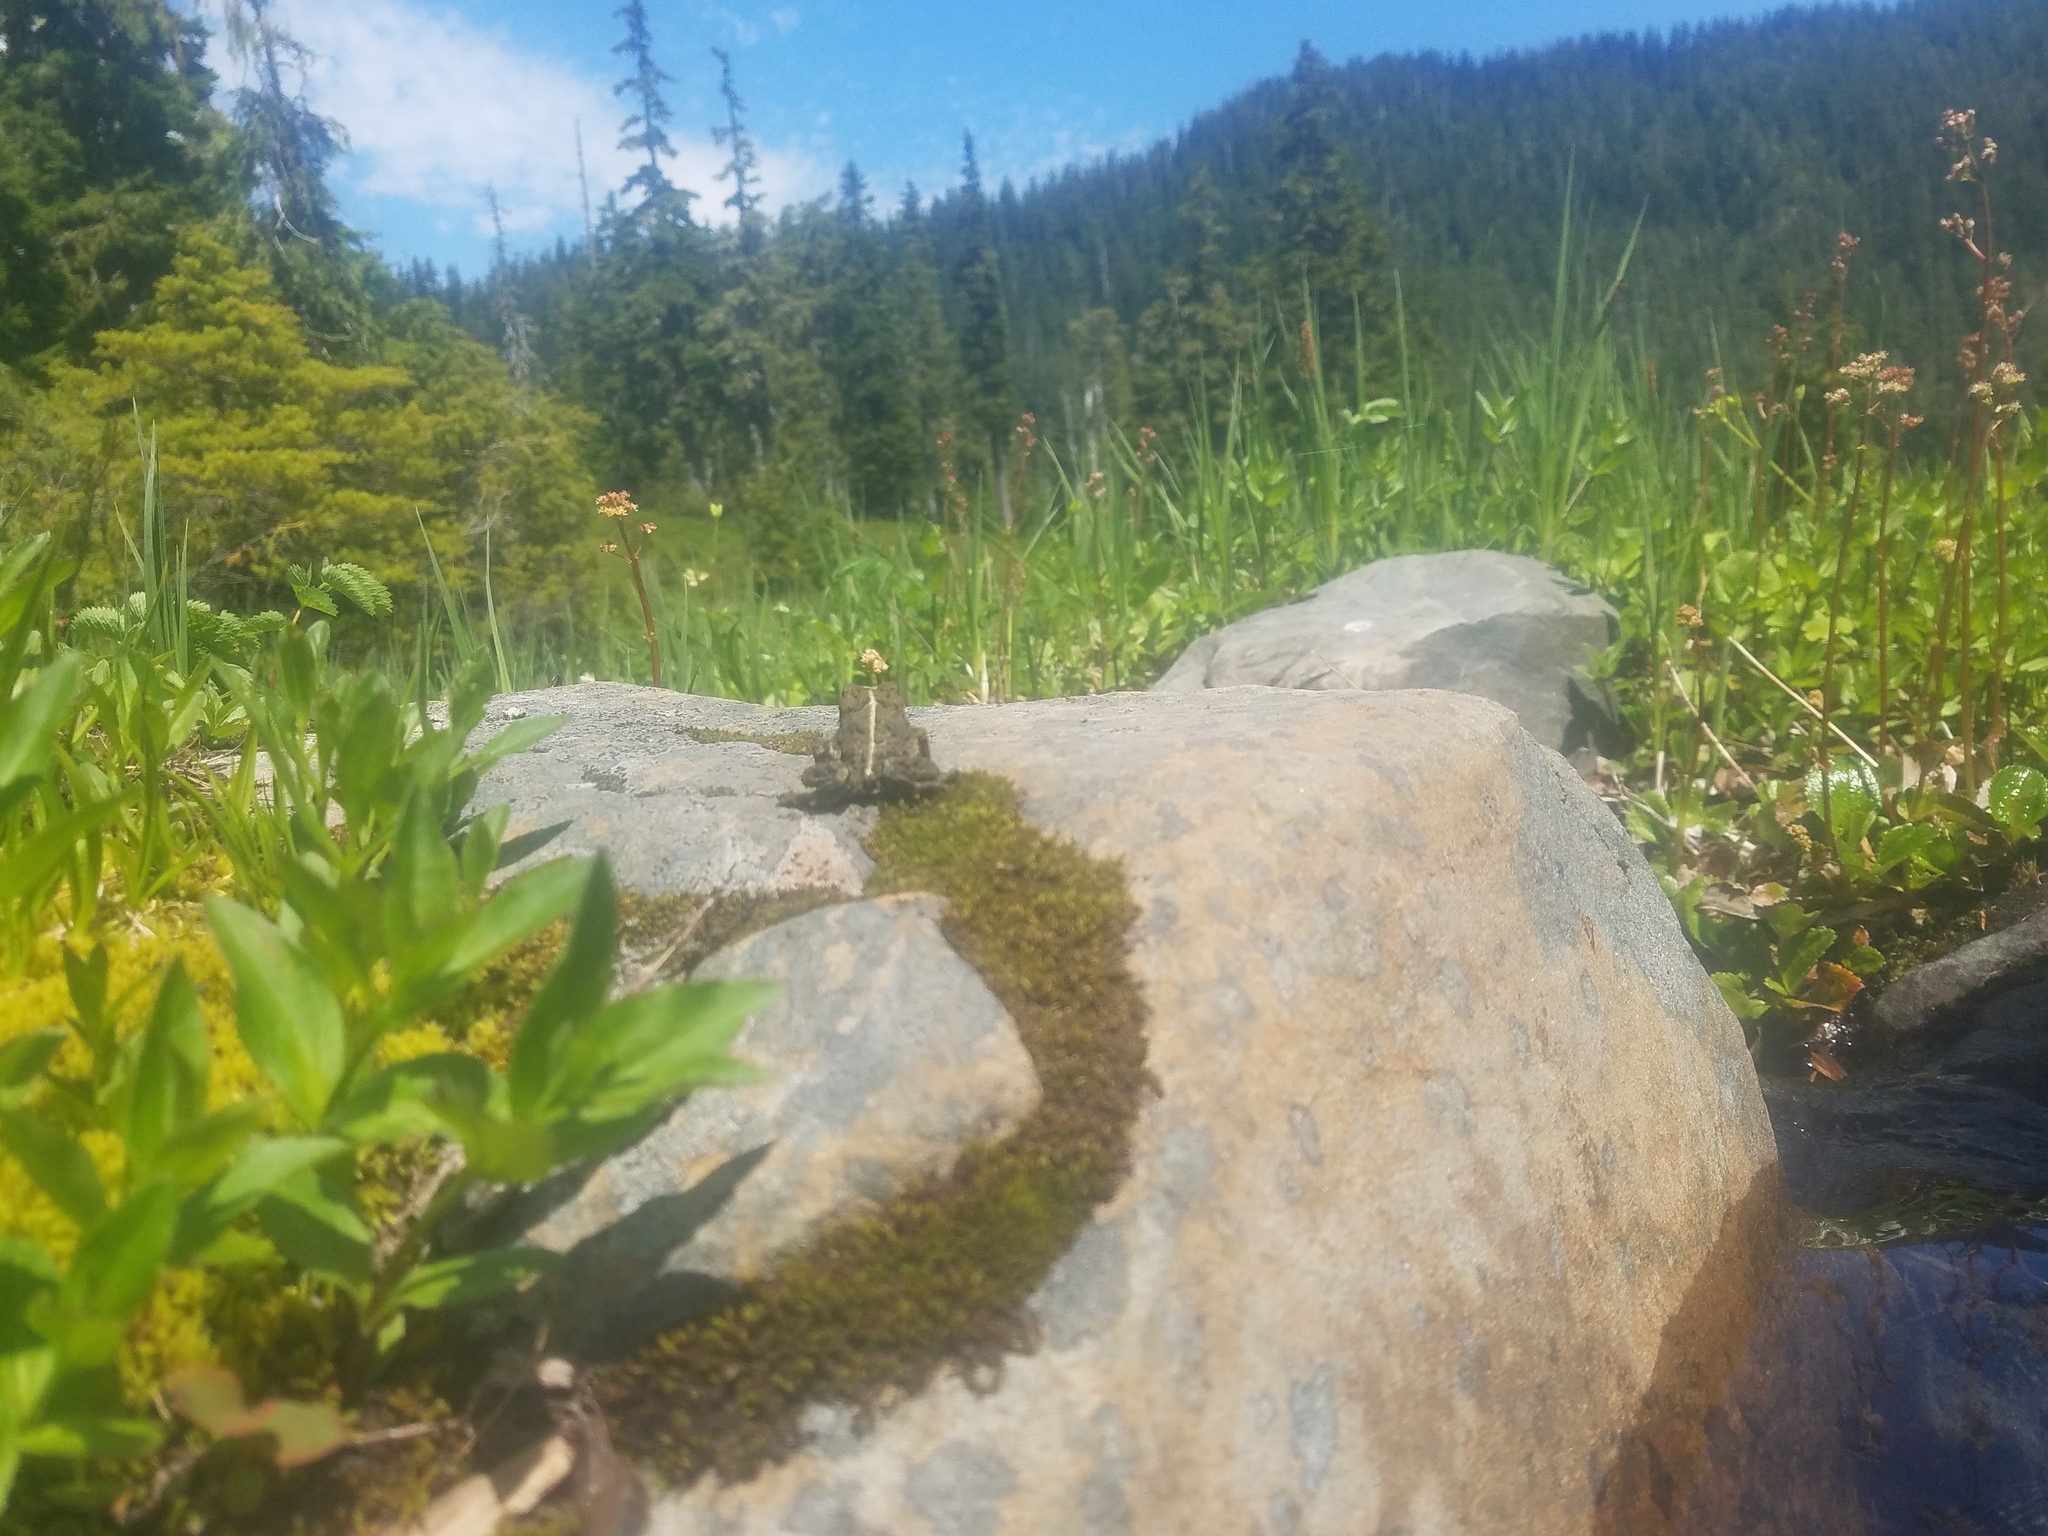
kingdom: Animalia
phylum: Chordata
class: Amphibia
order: Anura
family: Bufonidae
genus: Anaxyrus
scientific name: Anaxyrus boreas
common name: Western toad
